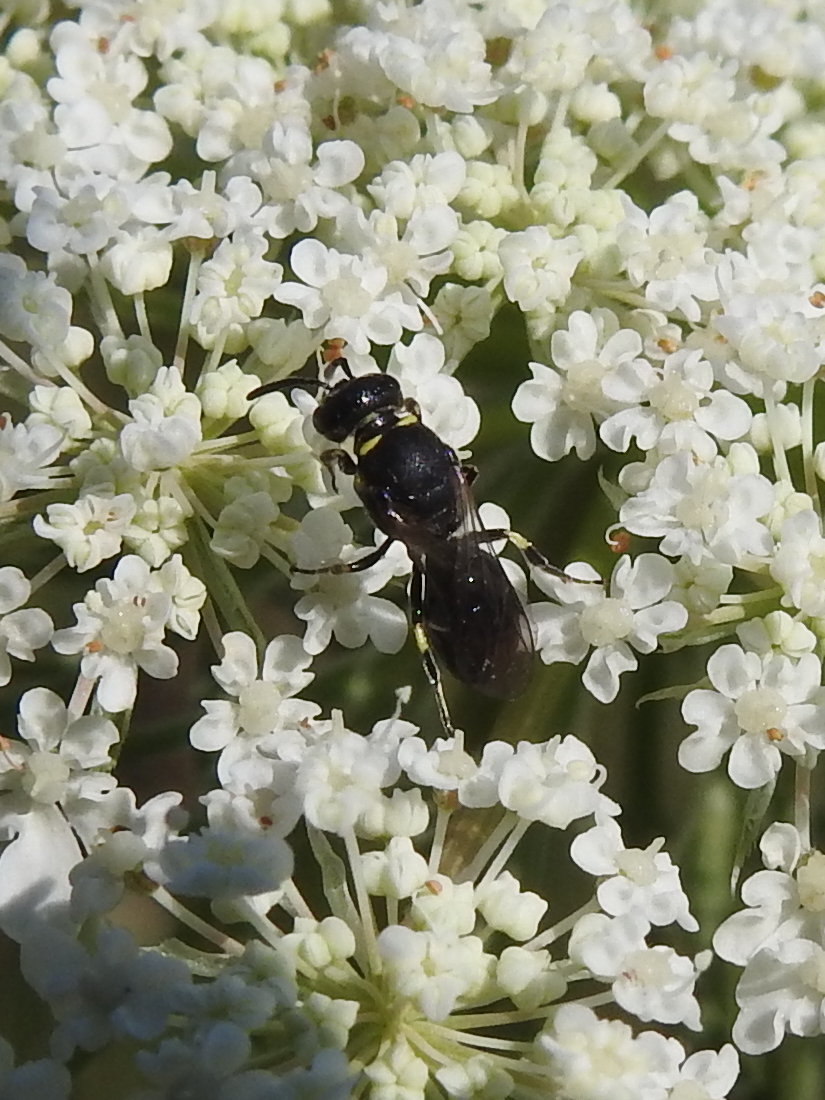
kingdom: Animalia
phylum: Arthropoda
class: Insecta
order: Hymenoptera
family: Colletidae
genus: Hylaeus
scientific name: Hylaeus modestus
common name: Yellow-faced bee
